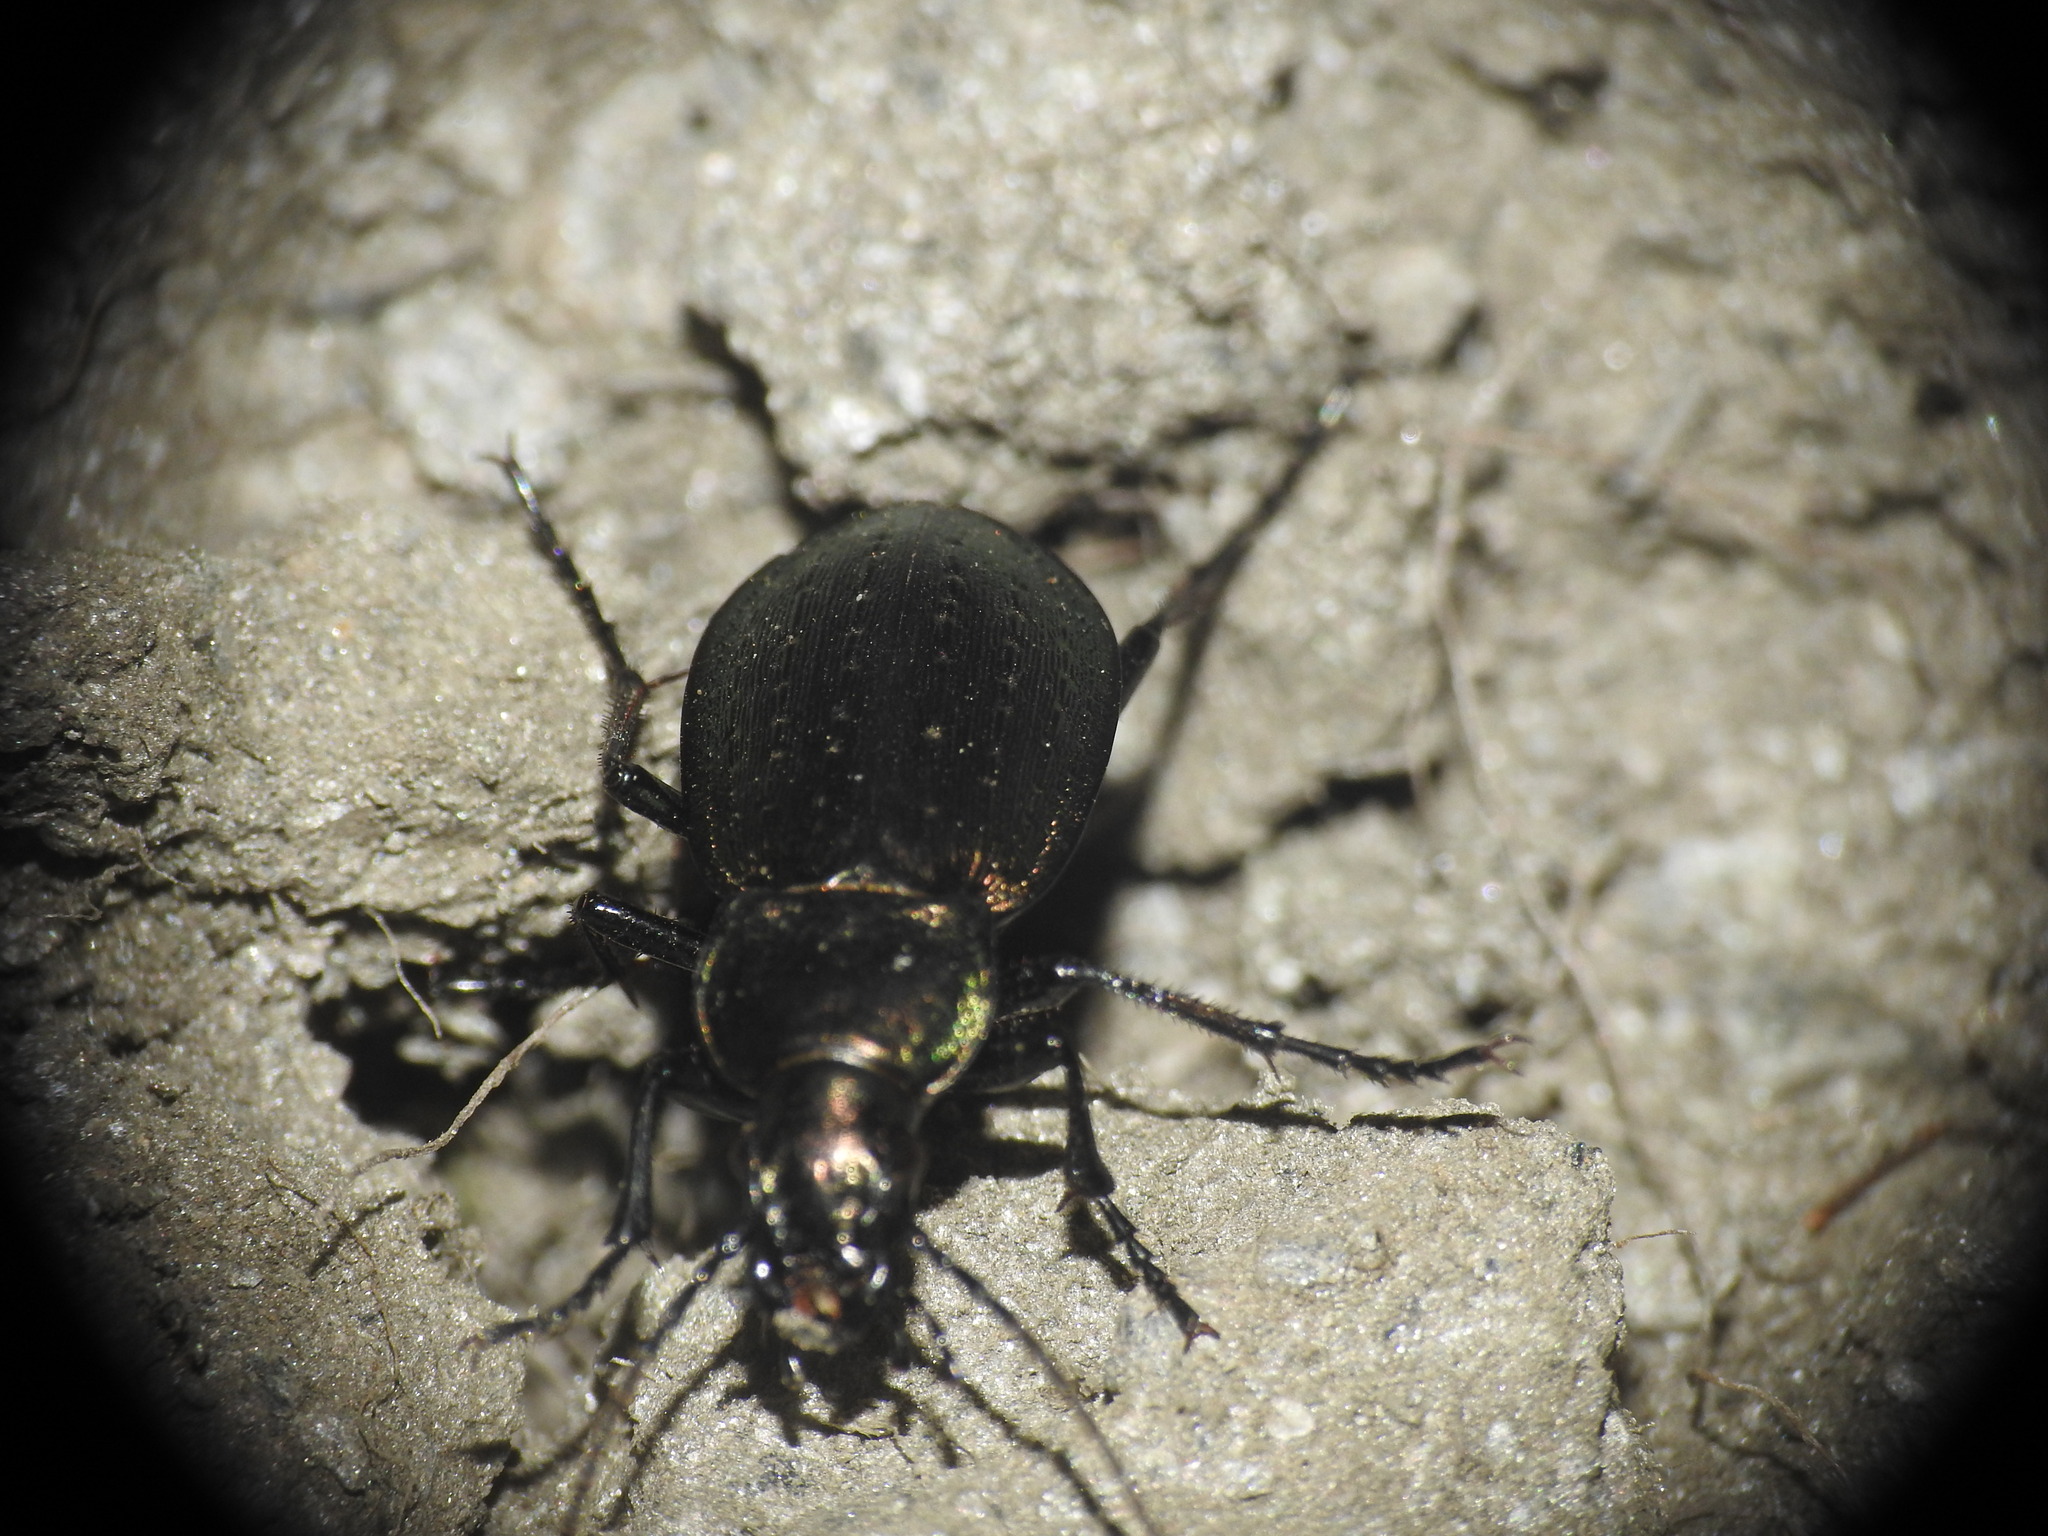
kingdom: Animalia
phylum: Arthropoda
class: Insecta
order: Coleoptera
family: Carabidae
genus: Carabus
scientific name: Carabus fairmairei
